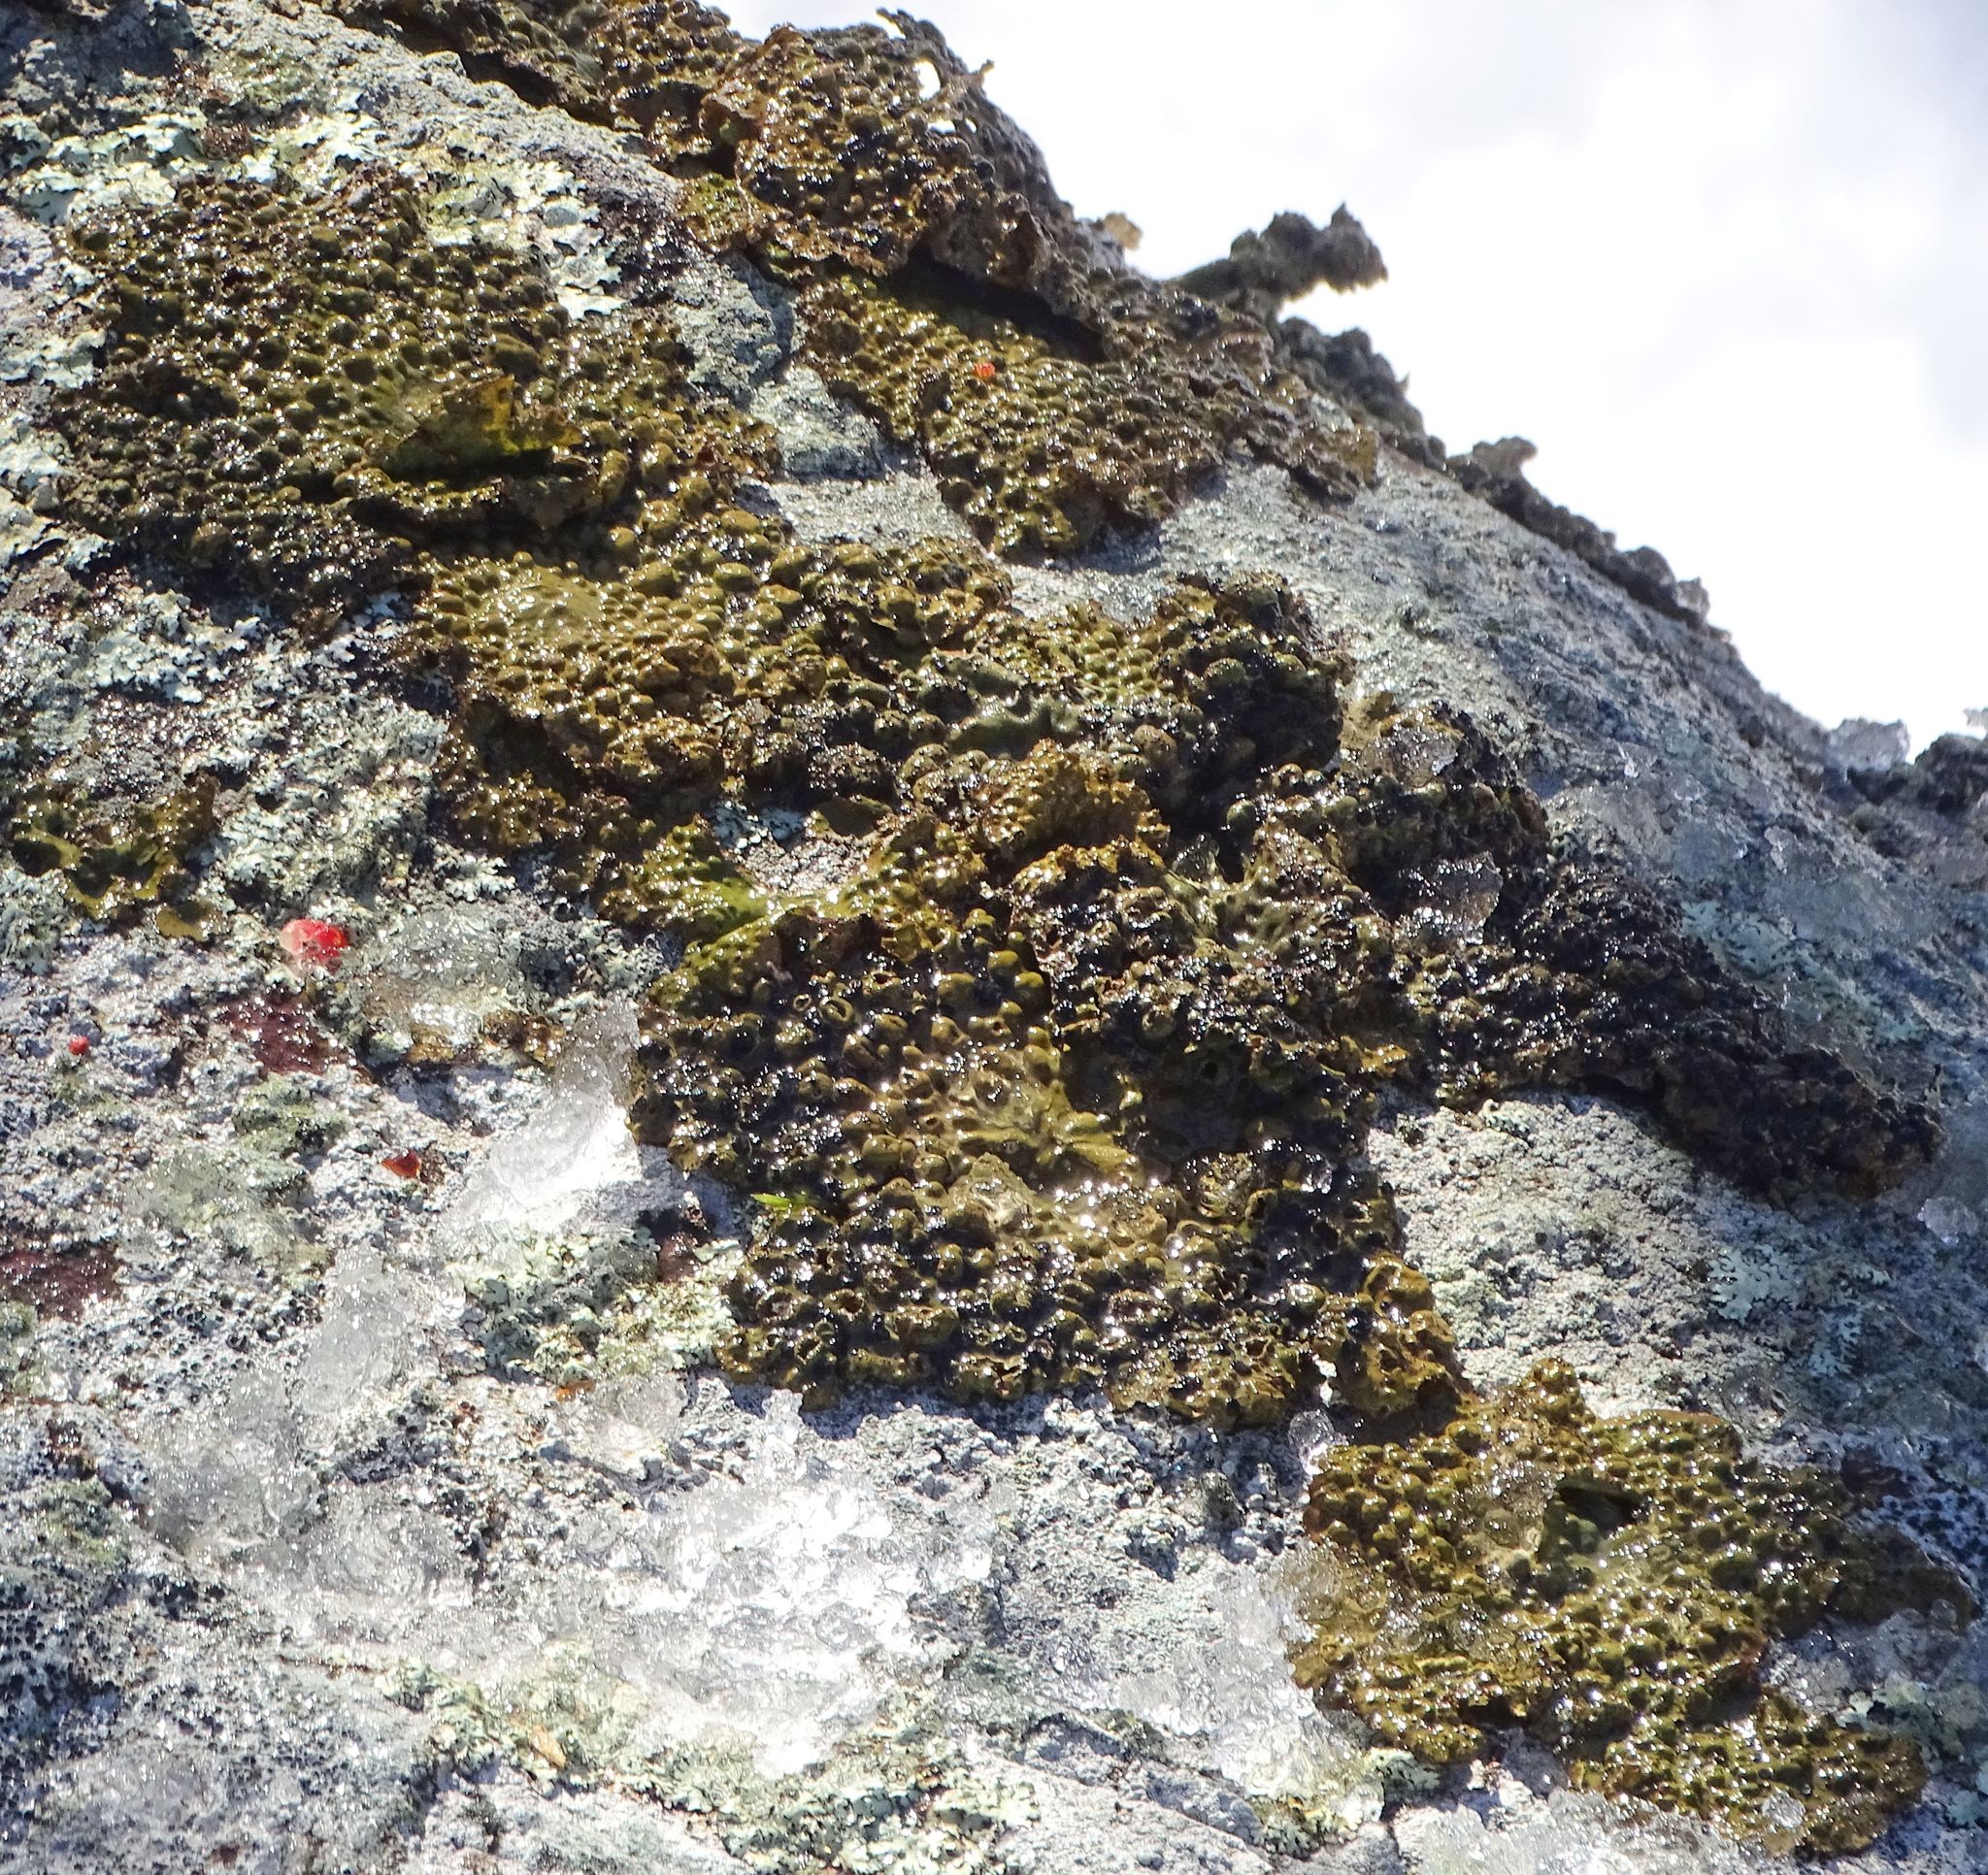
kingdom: Fungi
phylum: Ascomycota
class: Lecanoromycetes
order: Umbilicariales
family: Umbilicariaceae
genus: Lasallia
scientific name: Lasallia papulosa
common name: Common toadskin lichen
